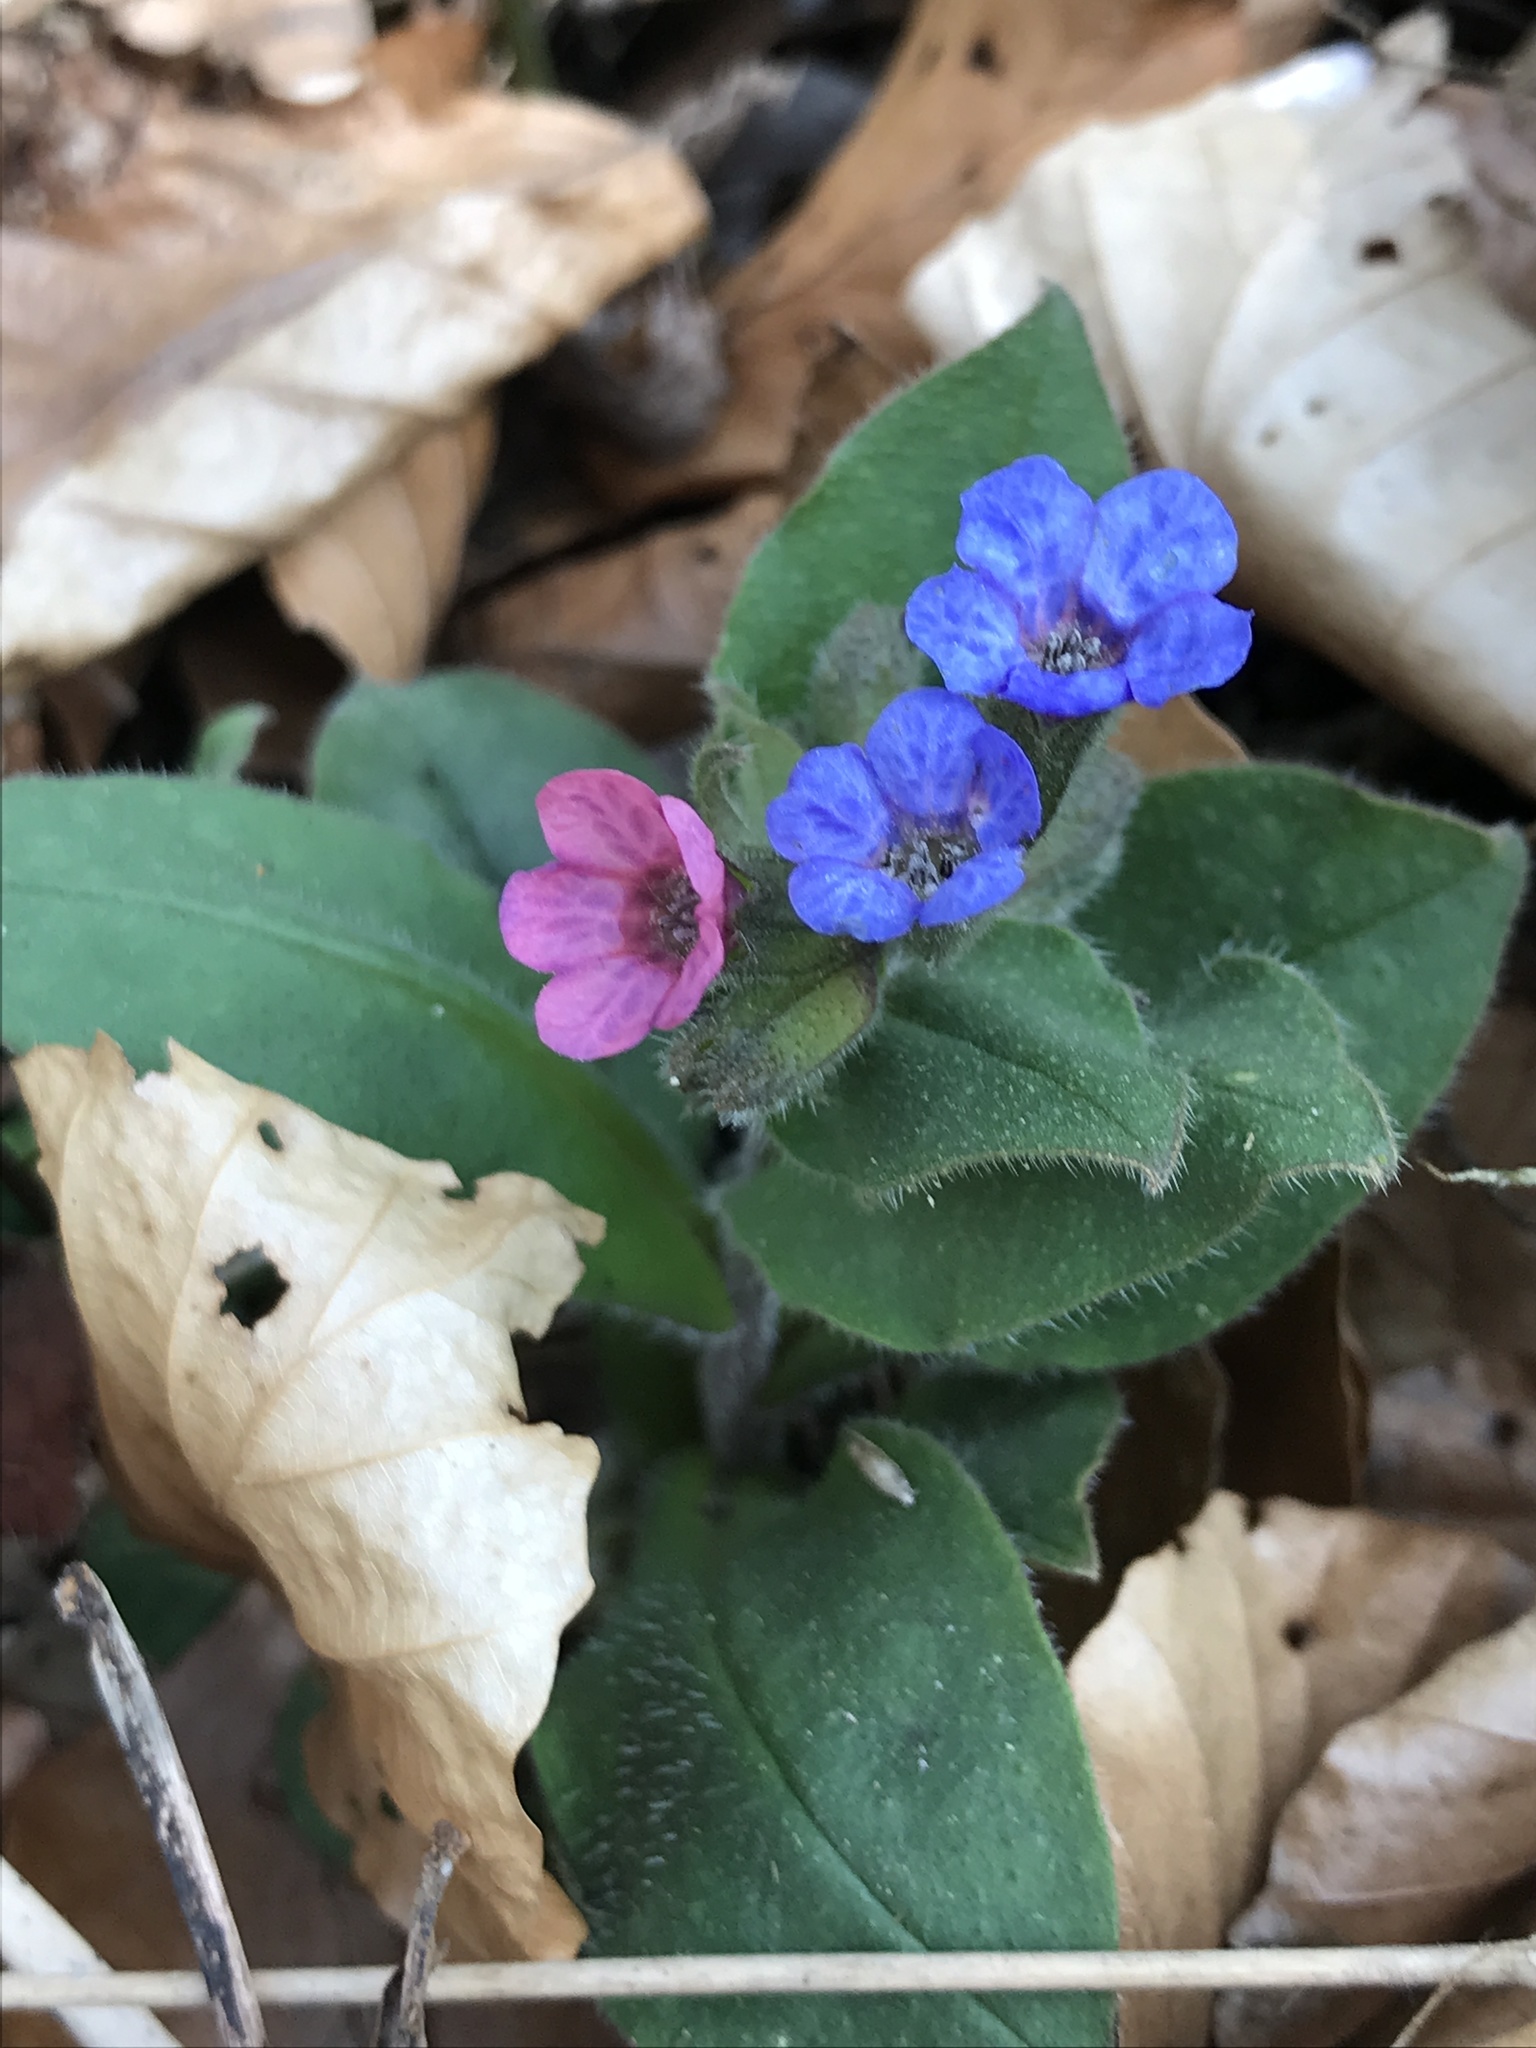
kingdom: Plantae
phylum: Tracheophyta
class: Magnoliopsida
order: Boraginales
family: Boraginaceae
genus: Pulmonaria
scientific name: Pulmonaria obscura
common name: Suffolk lungwort
